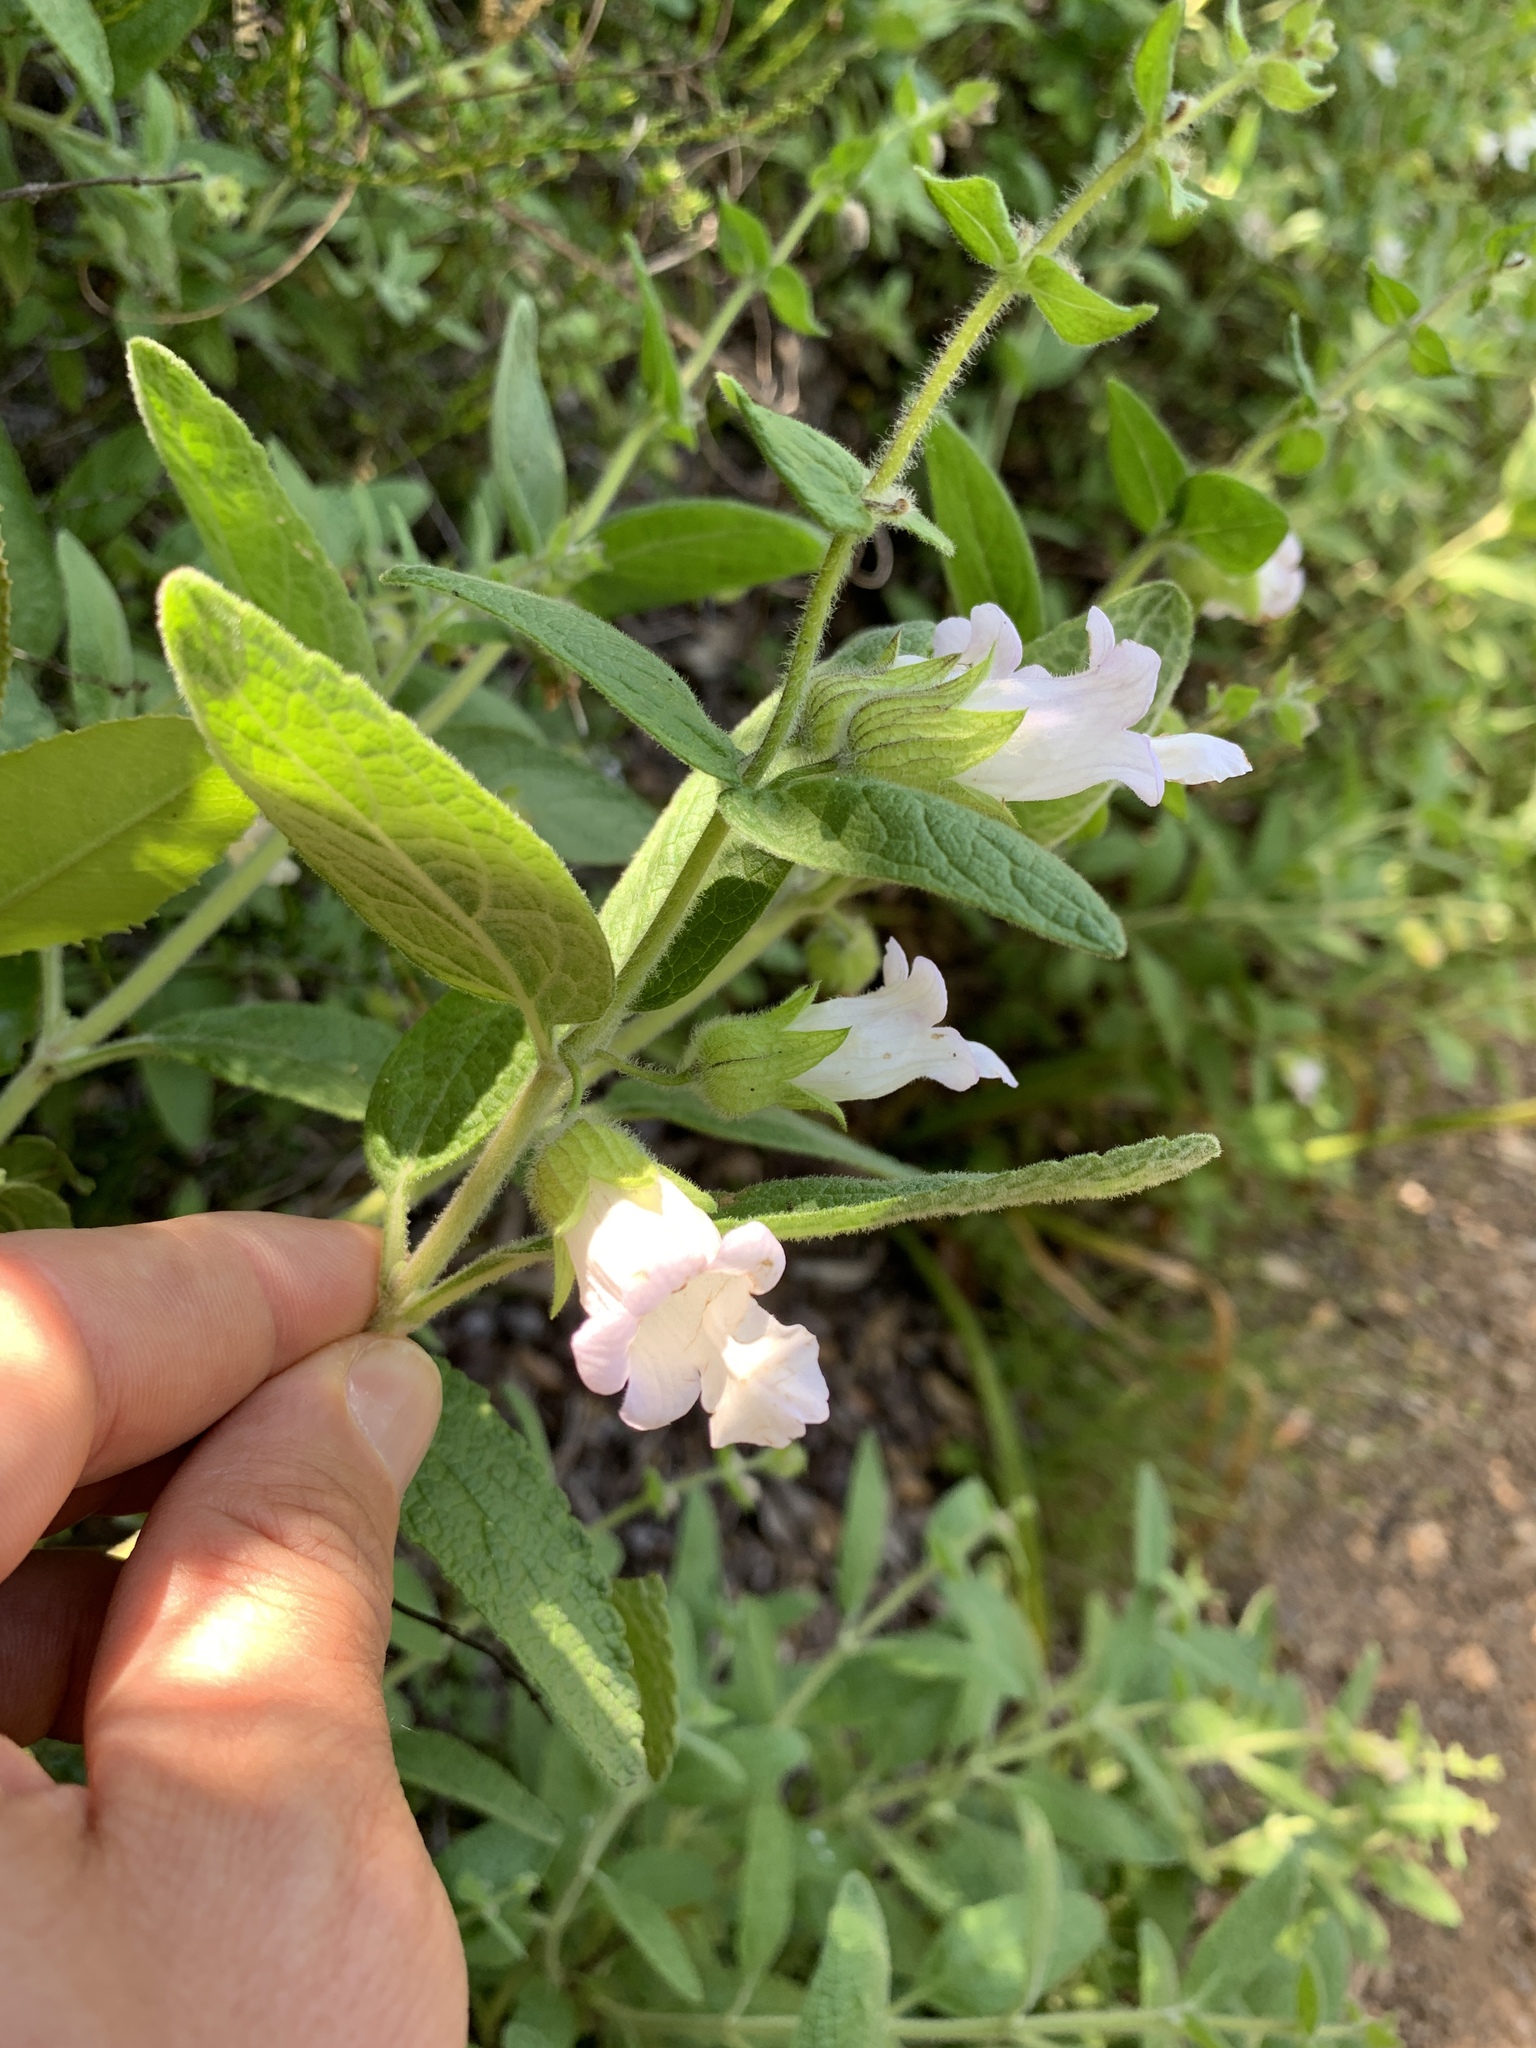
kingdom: Plantae
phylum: Tracheophyta
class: Magnoliopsida
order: Lamiales
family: Lamiaceae
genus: Lepechinia
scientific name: Lepechinia calycina
